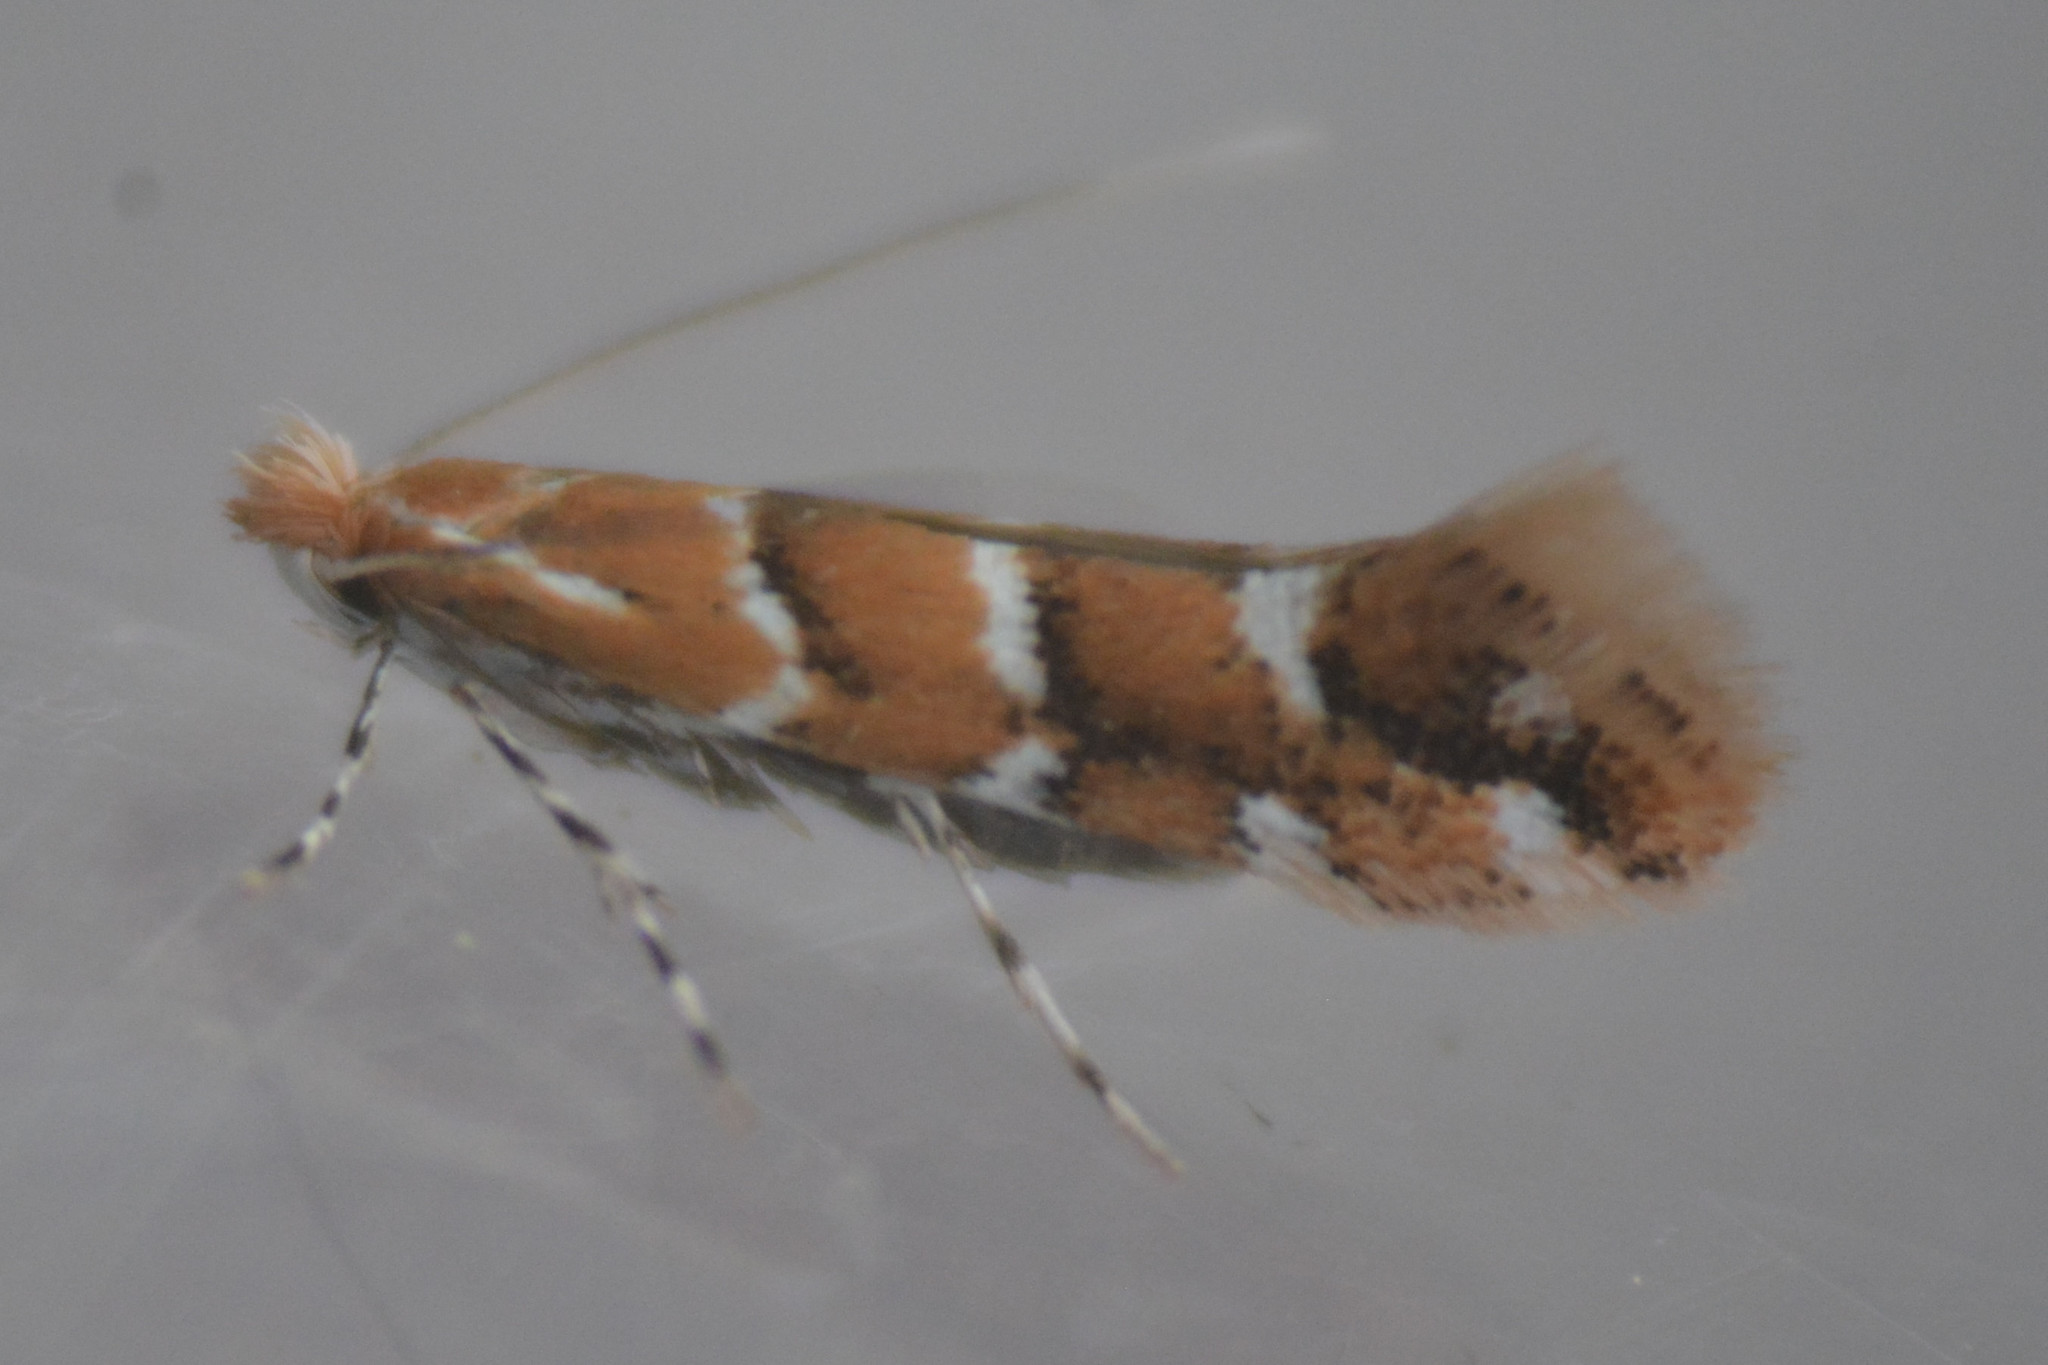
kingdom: Animalia
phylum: Arthropoda
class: Insecta
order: Lepidoptera
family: Gracillariidae
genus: Cameraria
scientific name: Cameraria ohridella
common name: Horse-chestnut leaf-miner
